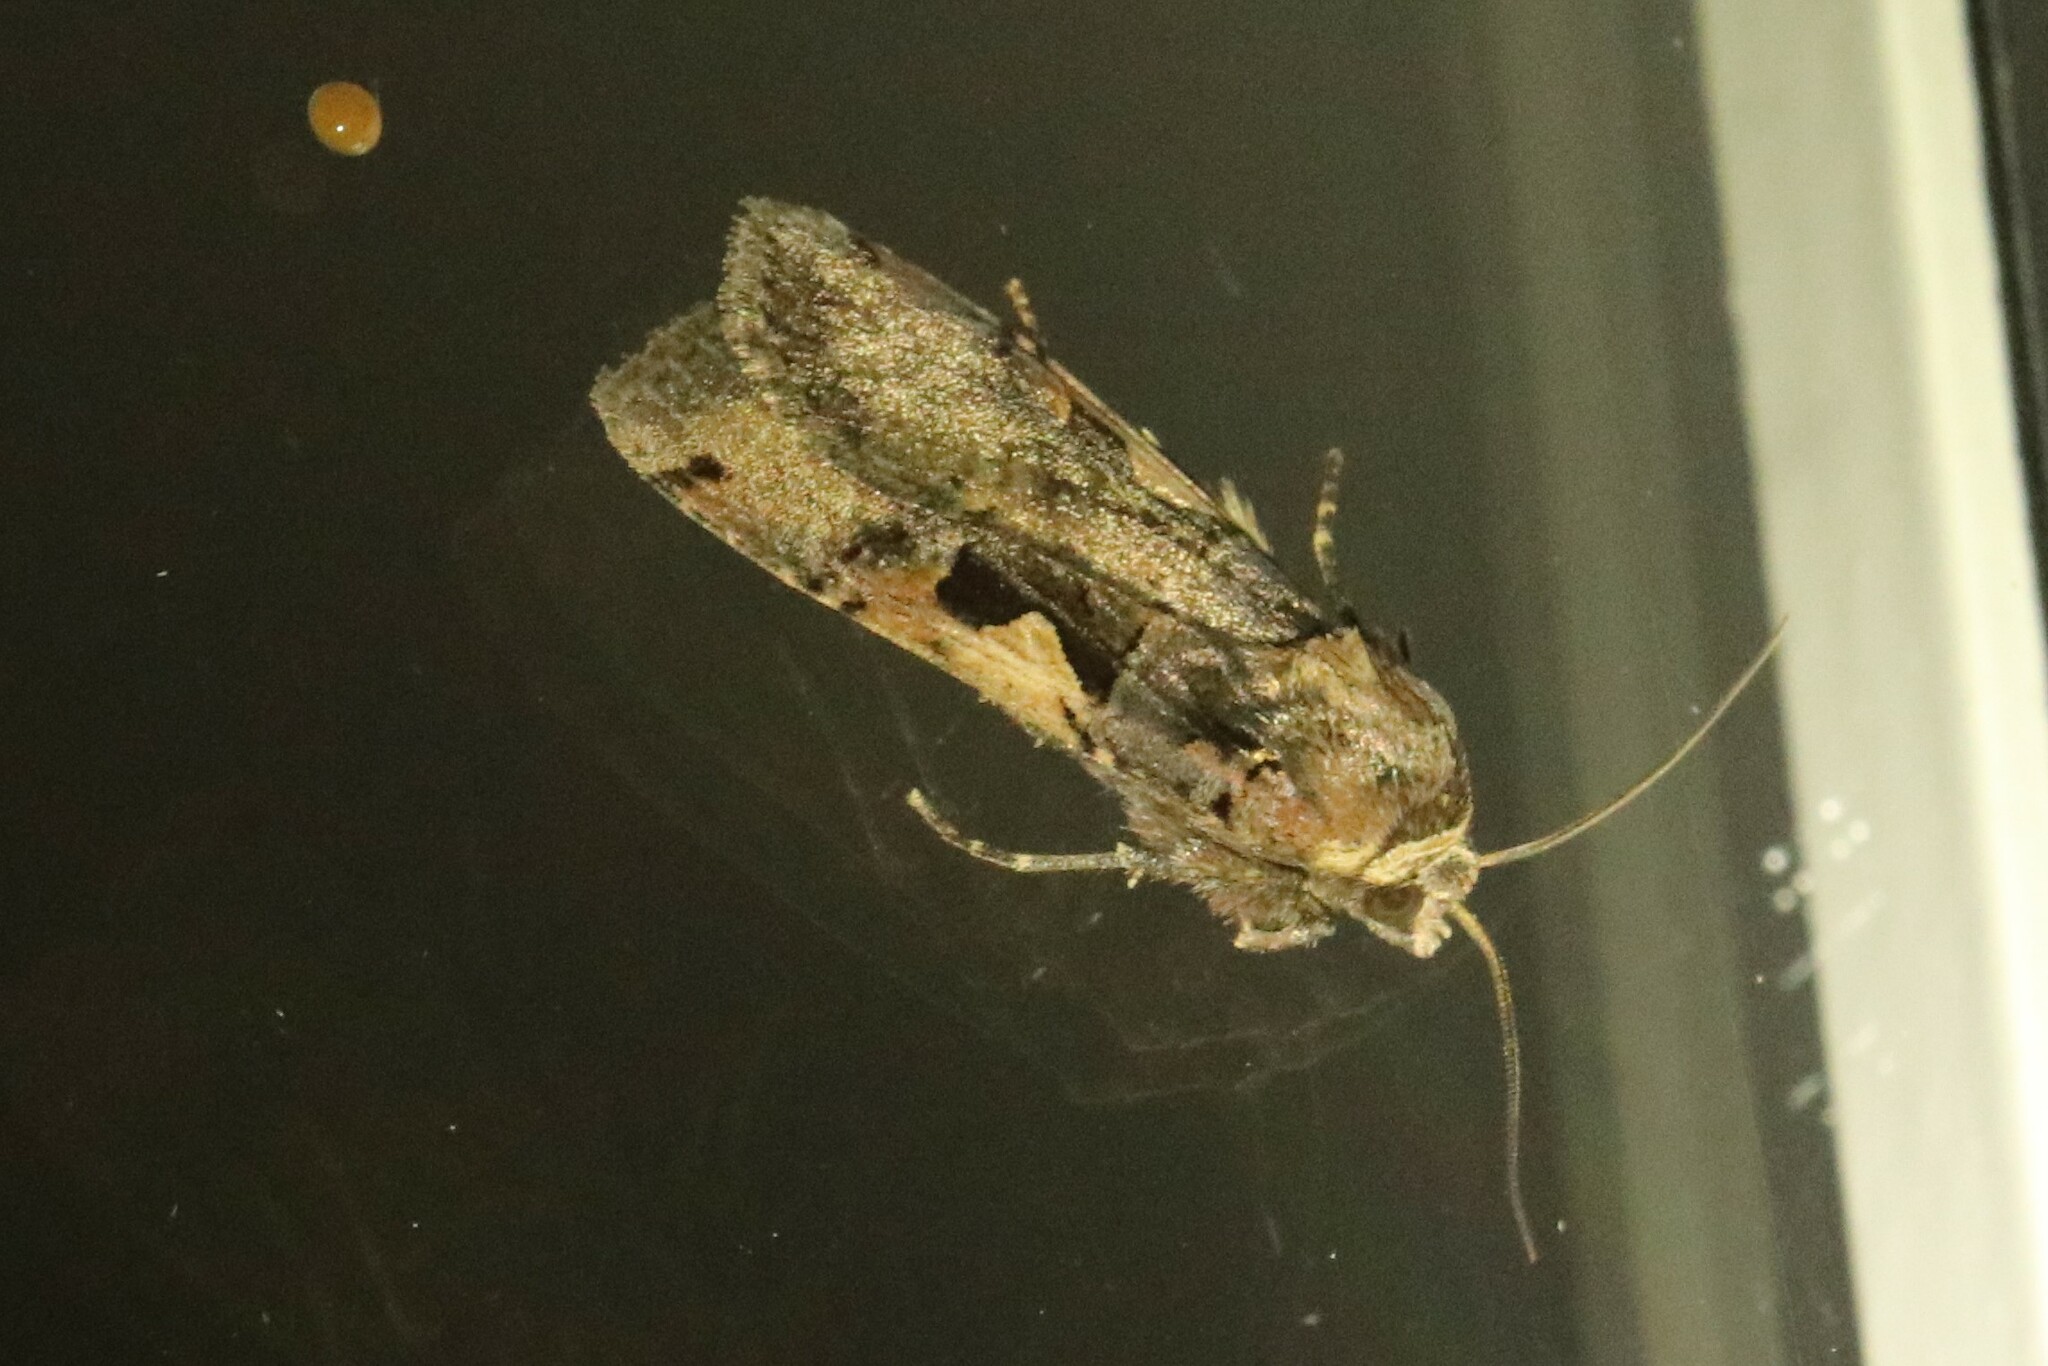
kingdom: Animalia
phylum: Arthropoda
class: Insecta
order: Lepidoptera
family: Noctuidae
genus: Xestia
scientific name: Xestia
